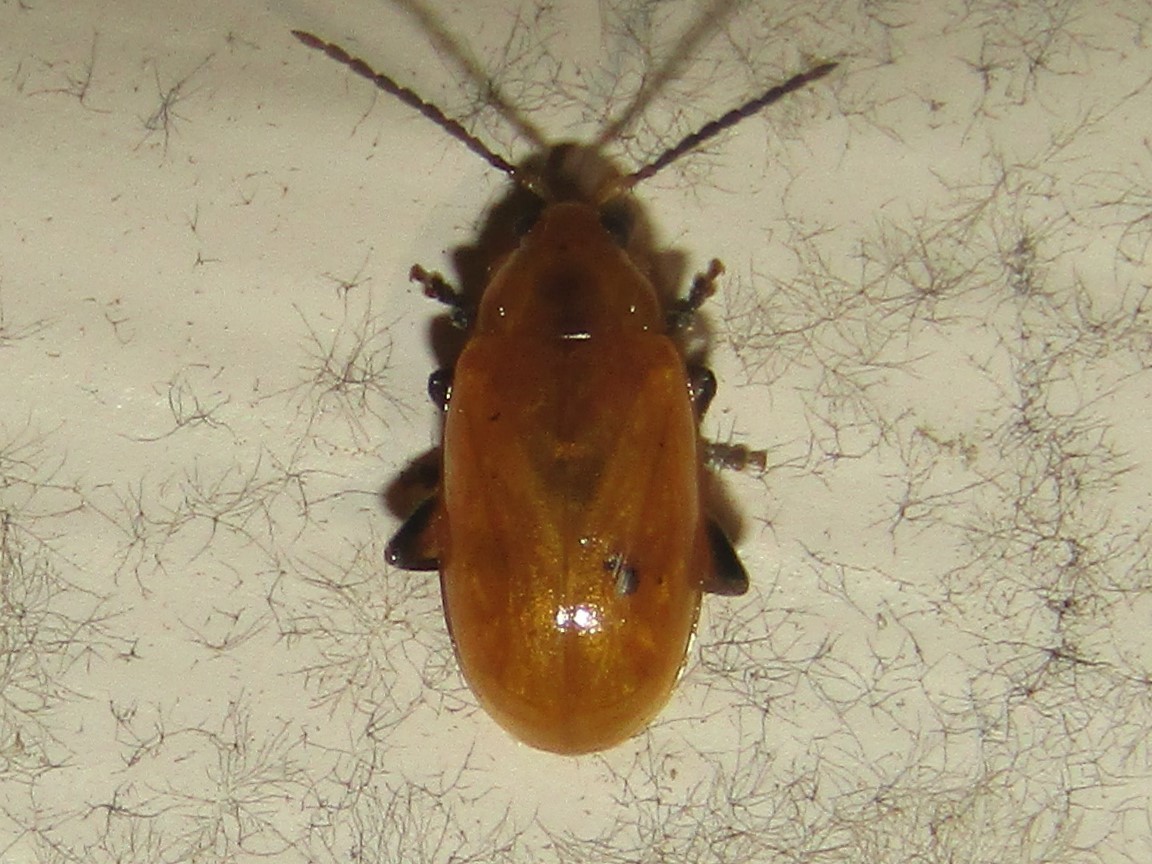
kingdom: Animalia
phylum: Arthropoda
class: Insecta
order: Coleoptera
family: Chrysomelidae
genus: Parchicola
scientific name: Parchicola tibialis
